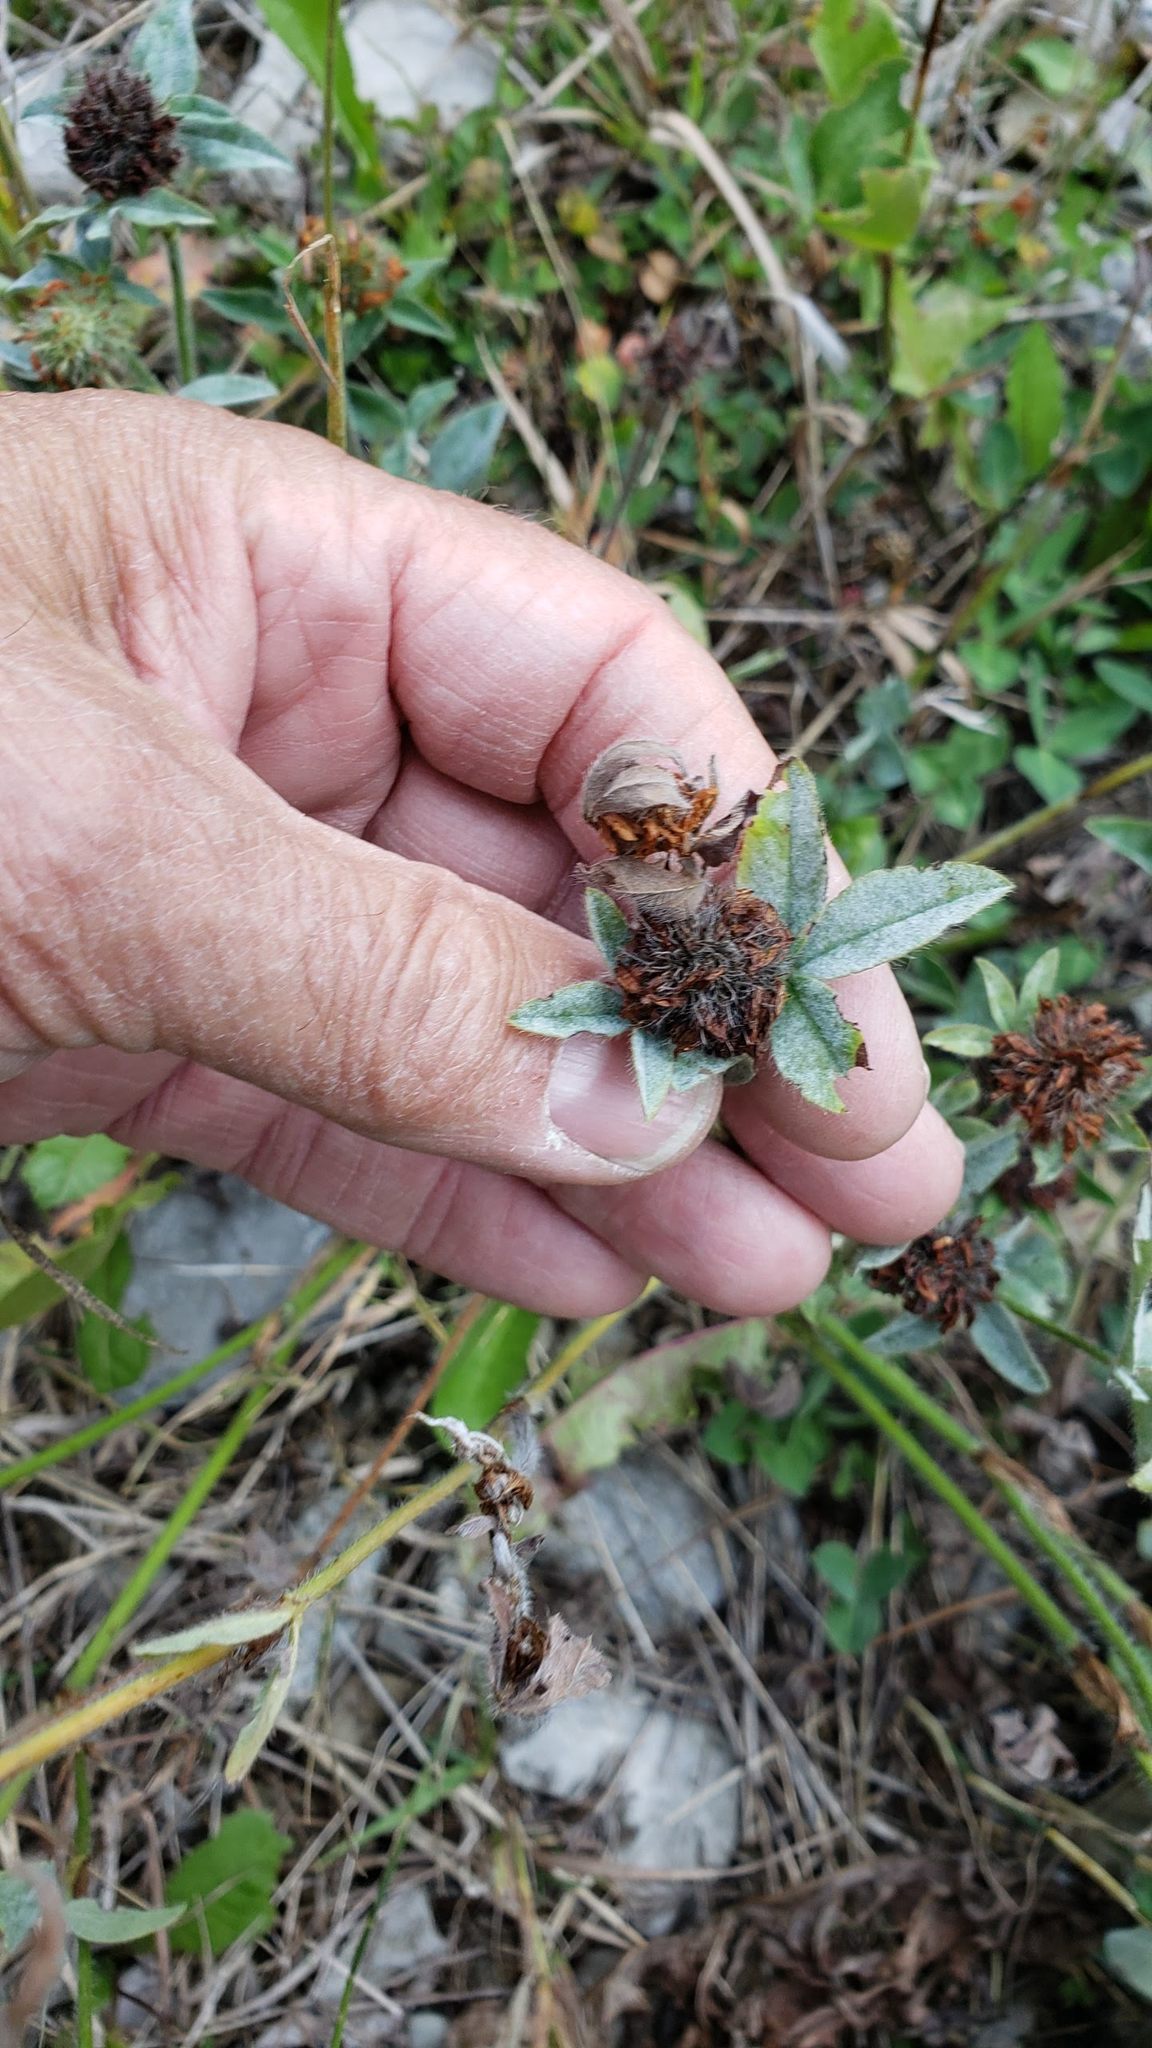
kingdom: Plantae
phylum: Tracheophyta
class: Magnoliopsida
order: Fabales
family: Fabaceae
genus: Trifolium
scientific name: Trifolium pratense
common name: Red clover
